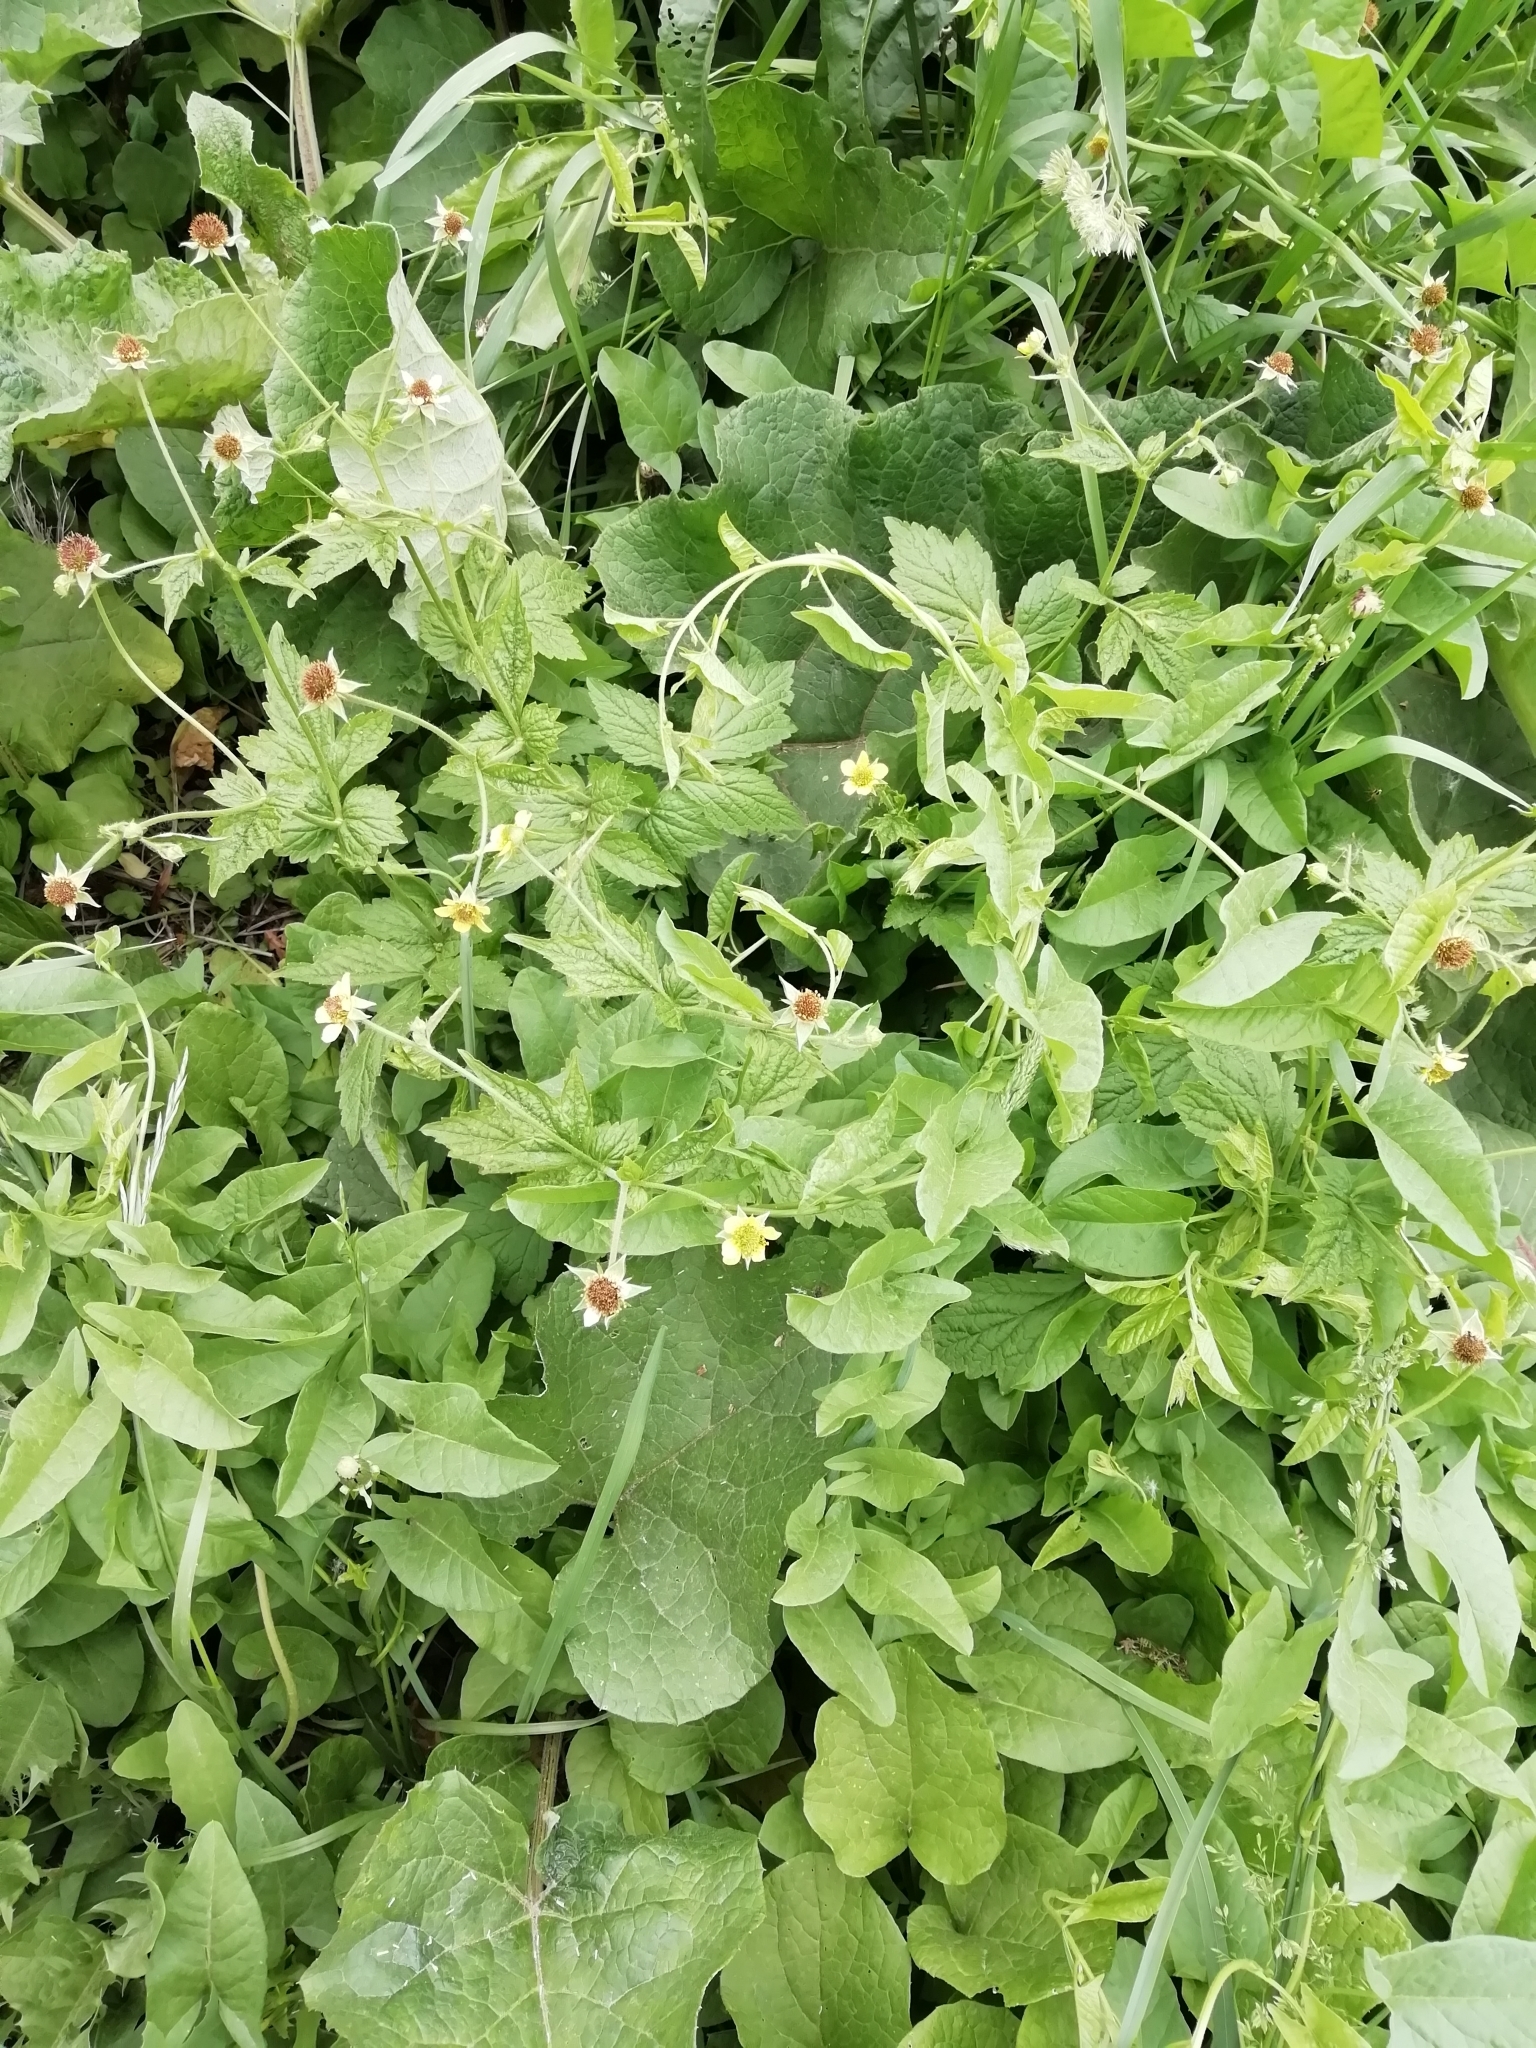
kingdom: Plantae
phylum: Tracheophyta
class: Magnoliopsida
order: Rosales
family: Rosaceae
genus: Geum
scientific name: Geum urbanum
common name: Wood avens
